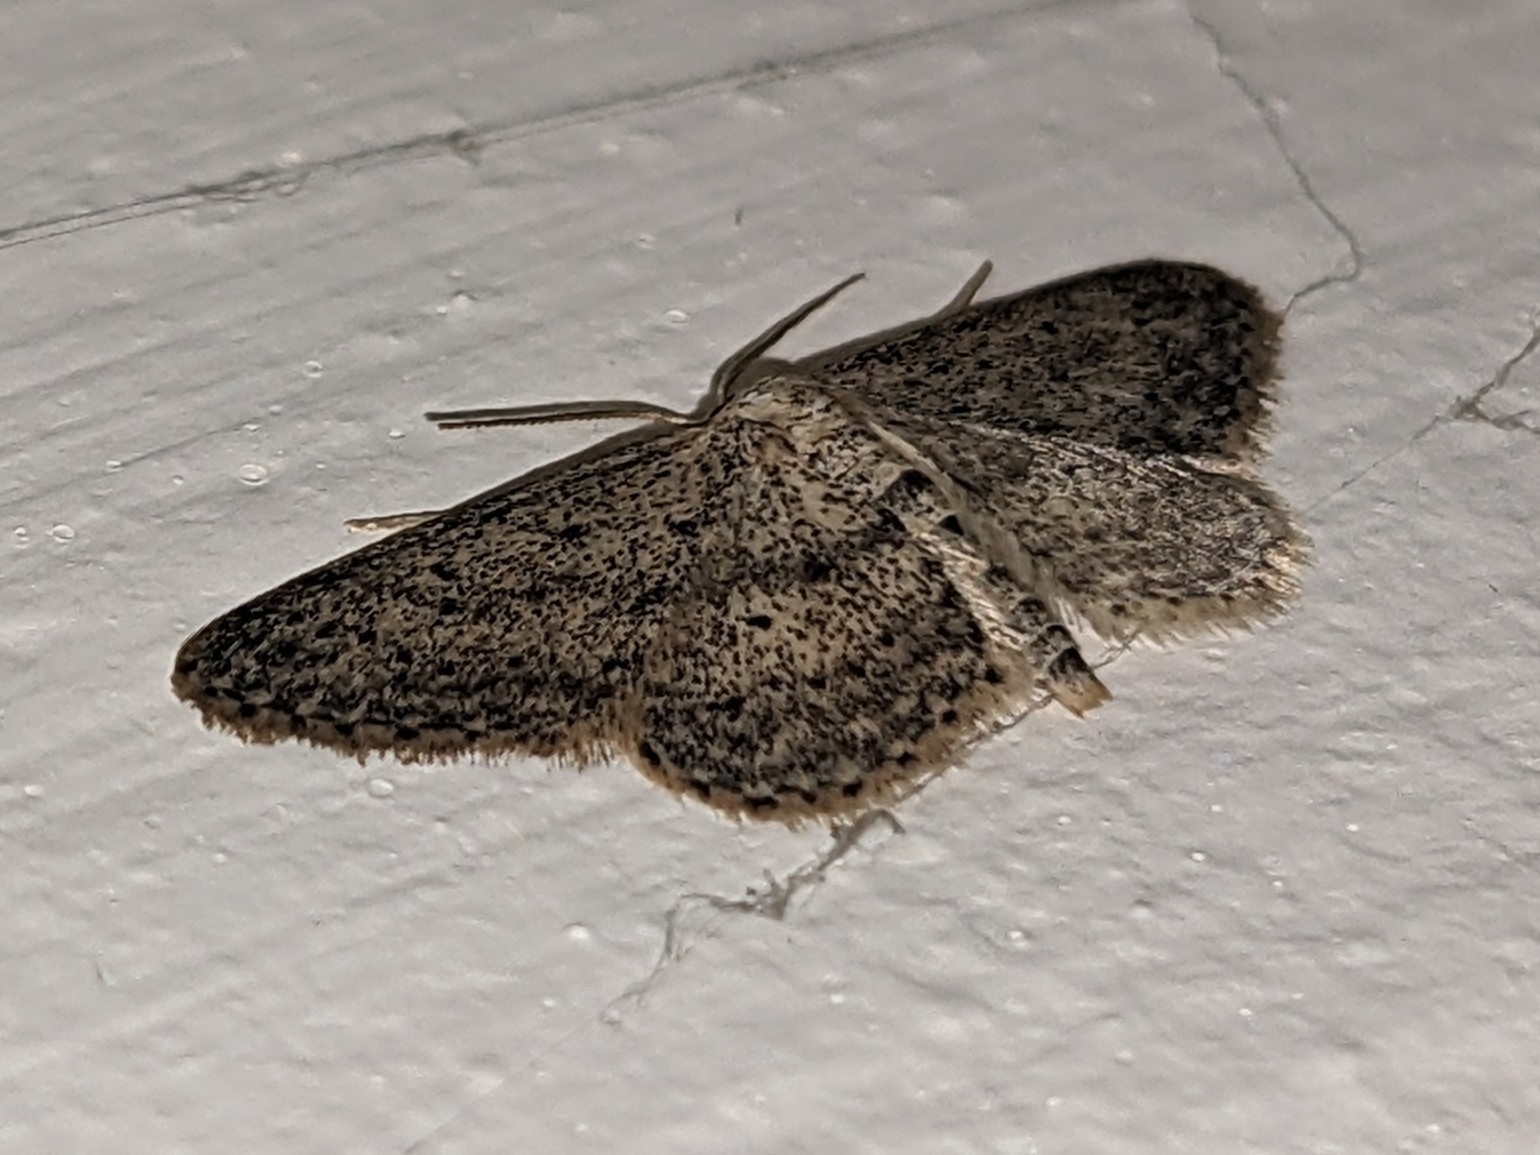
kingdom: Animalia
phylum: Arthropoda
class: Insecta
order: Lepidoptera
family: Geometridae
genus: Idaea
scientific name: Idaea seriata
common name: Small dusty wave
